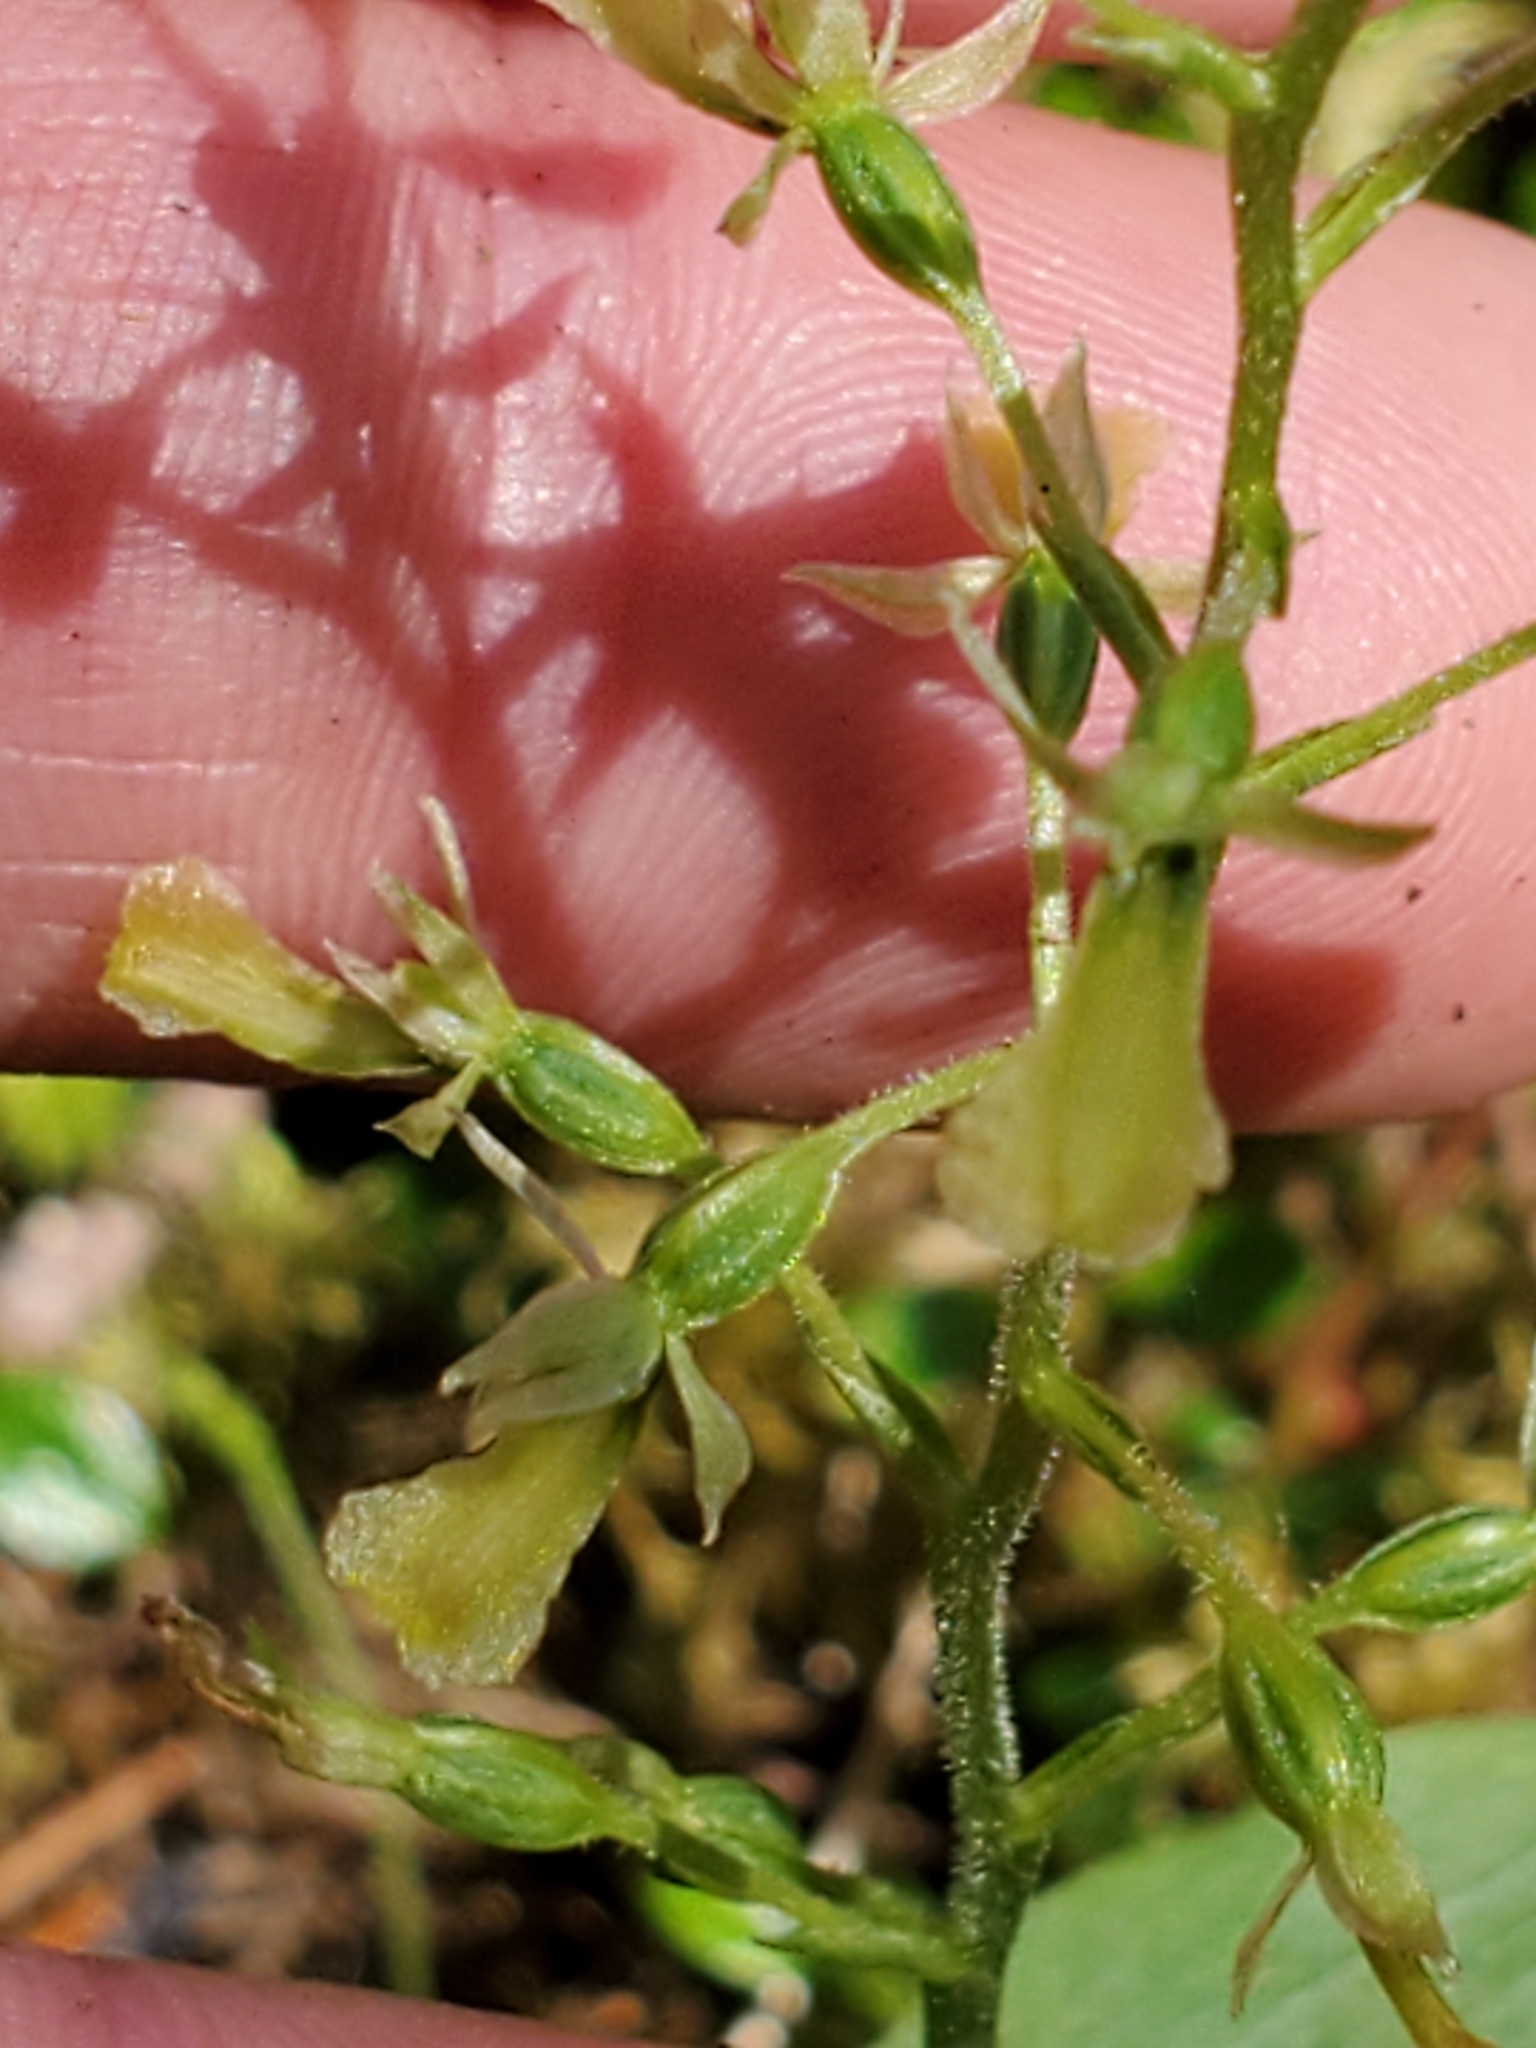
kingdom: Plantae
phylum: Tracheophyta
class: Liliopsida
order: Asparagales
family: Orchidaceae
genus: Neottia
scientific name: Neottia banksiana
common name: Northwestern twayblade
